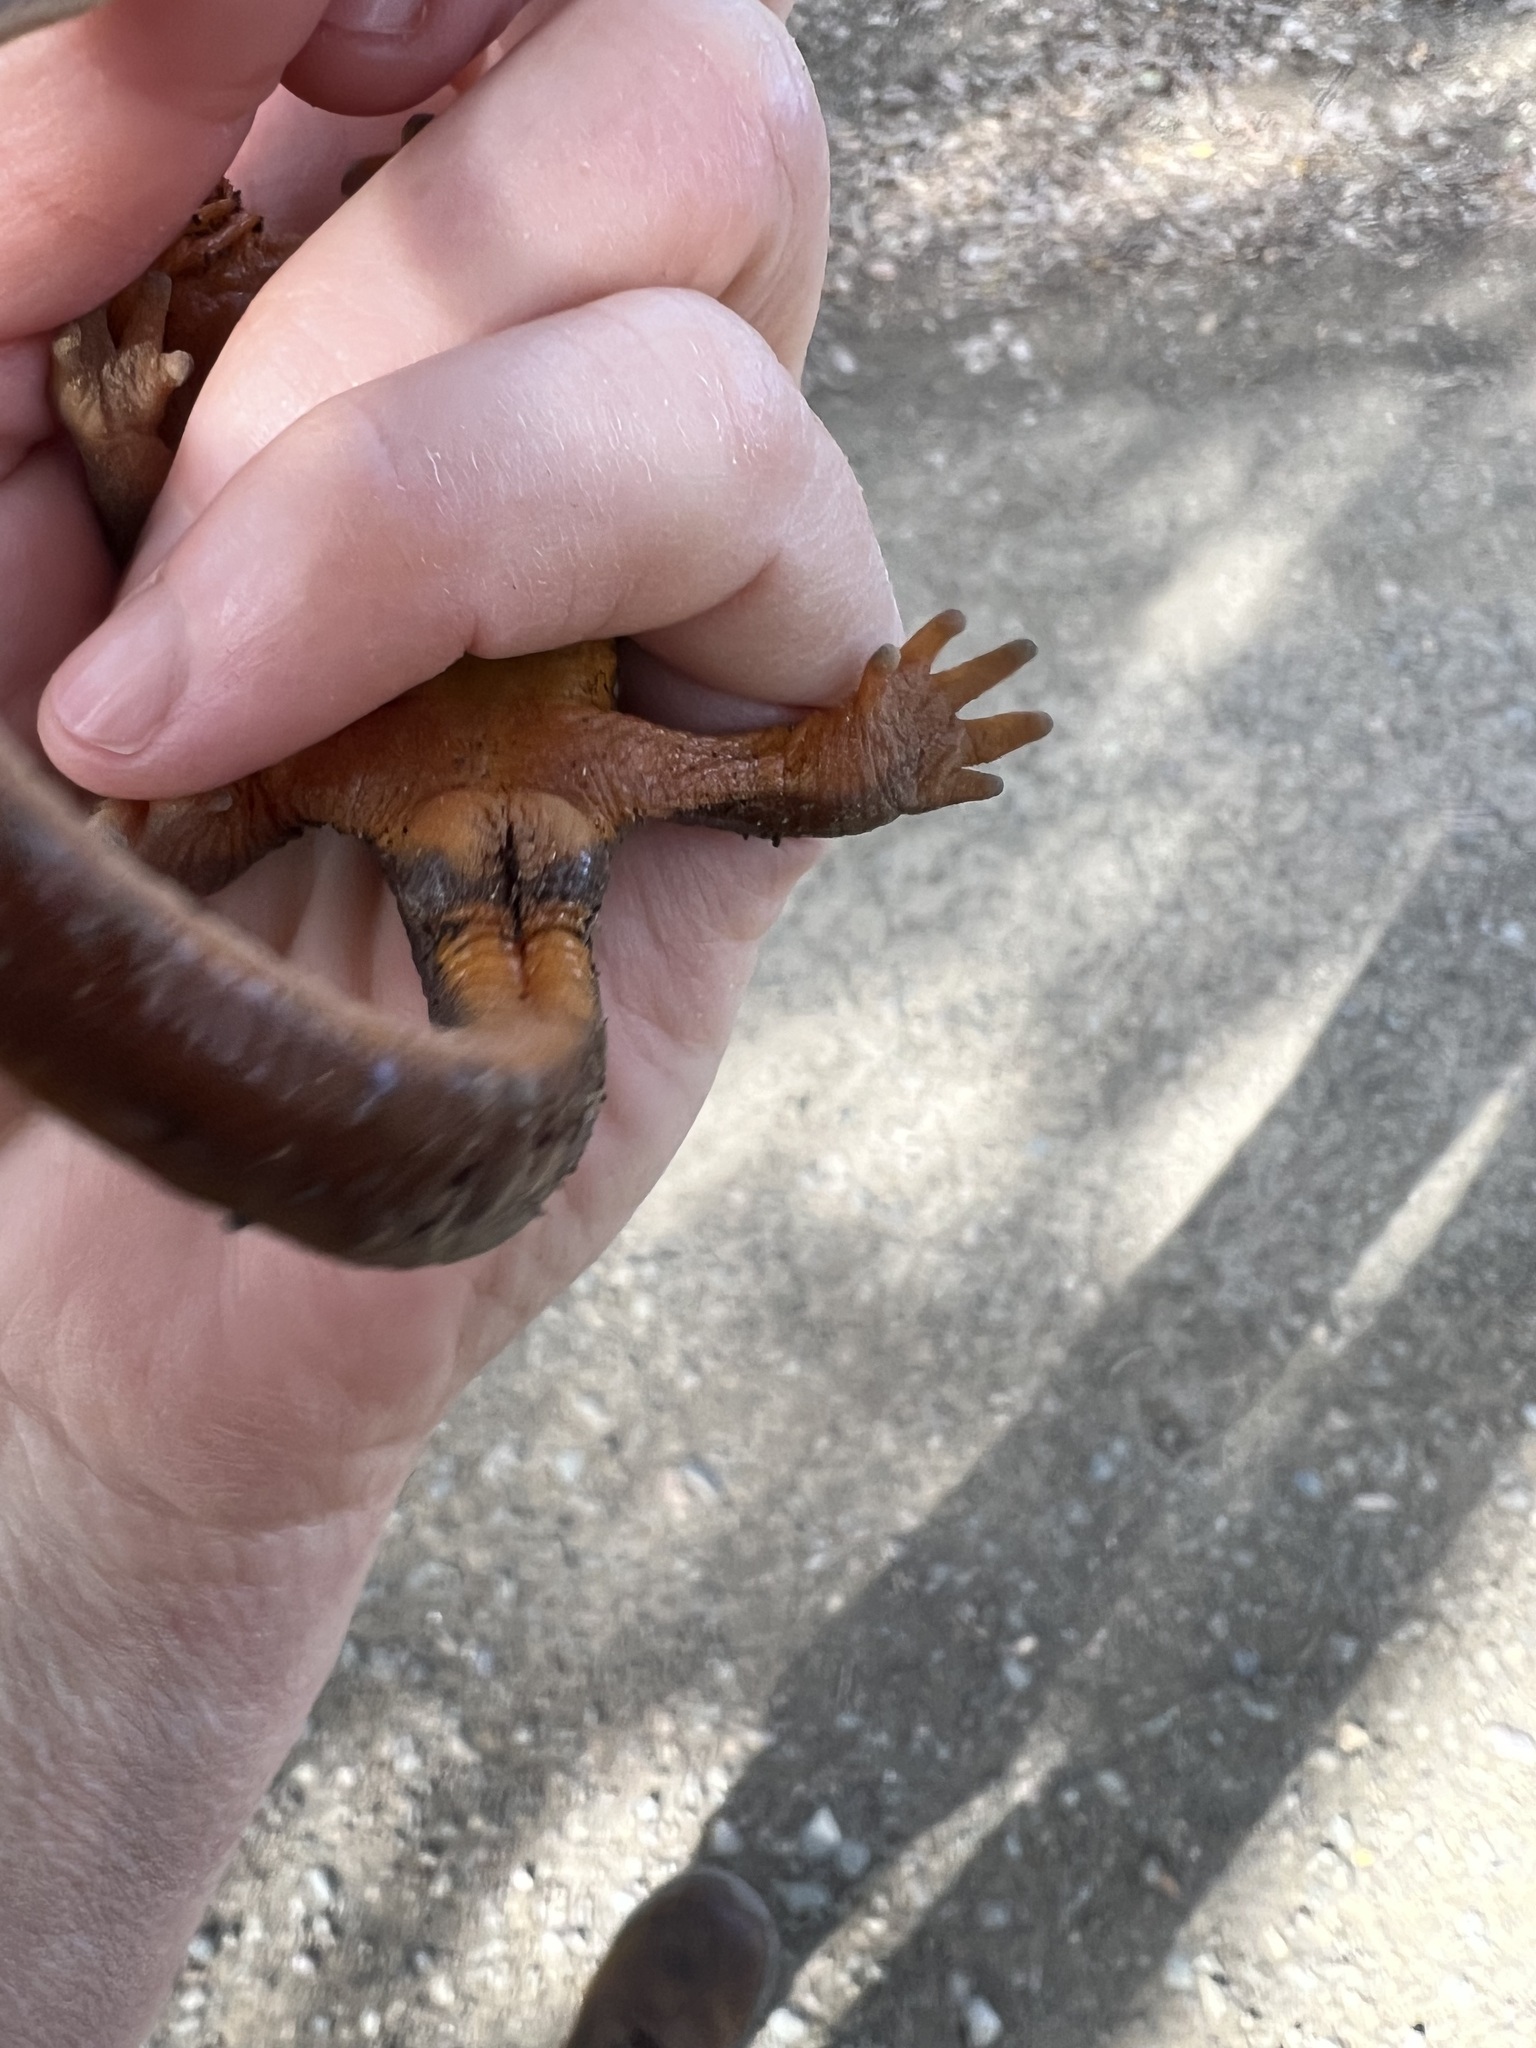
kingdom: Animalia
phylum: Chordata
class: Amphibia
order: Caudata
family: Salamandridae
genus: Taricha
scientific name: Taricha torosa
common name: California newt
